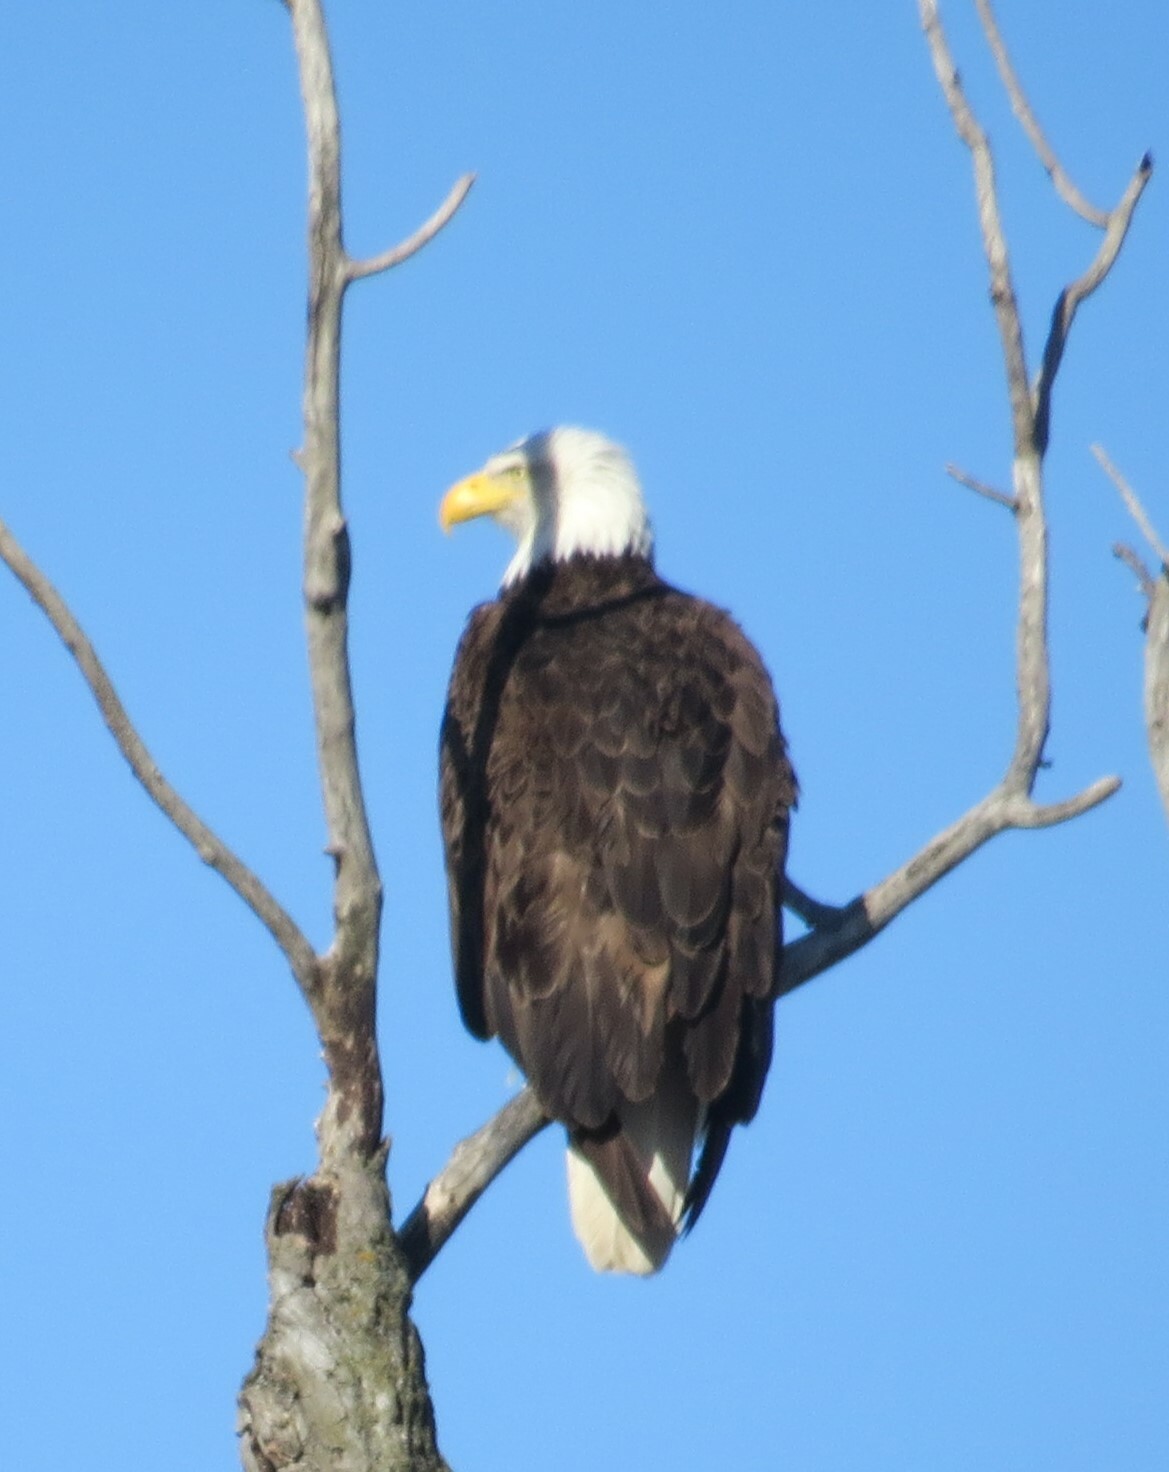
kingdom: Animalia
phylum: Chordata
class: Aves
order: Accipitriformes
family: Accipitridae
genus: Haliaeetus
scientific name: Haliaeetus leucocephalus
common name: Bald eagle
